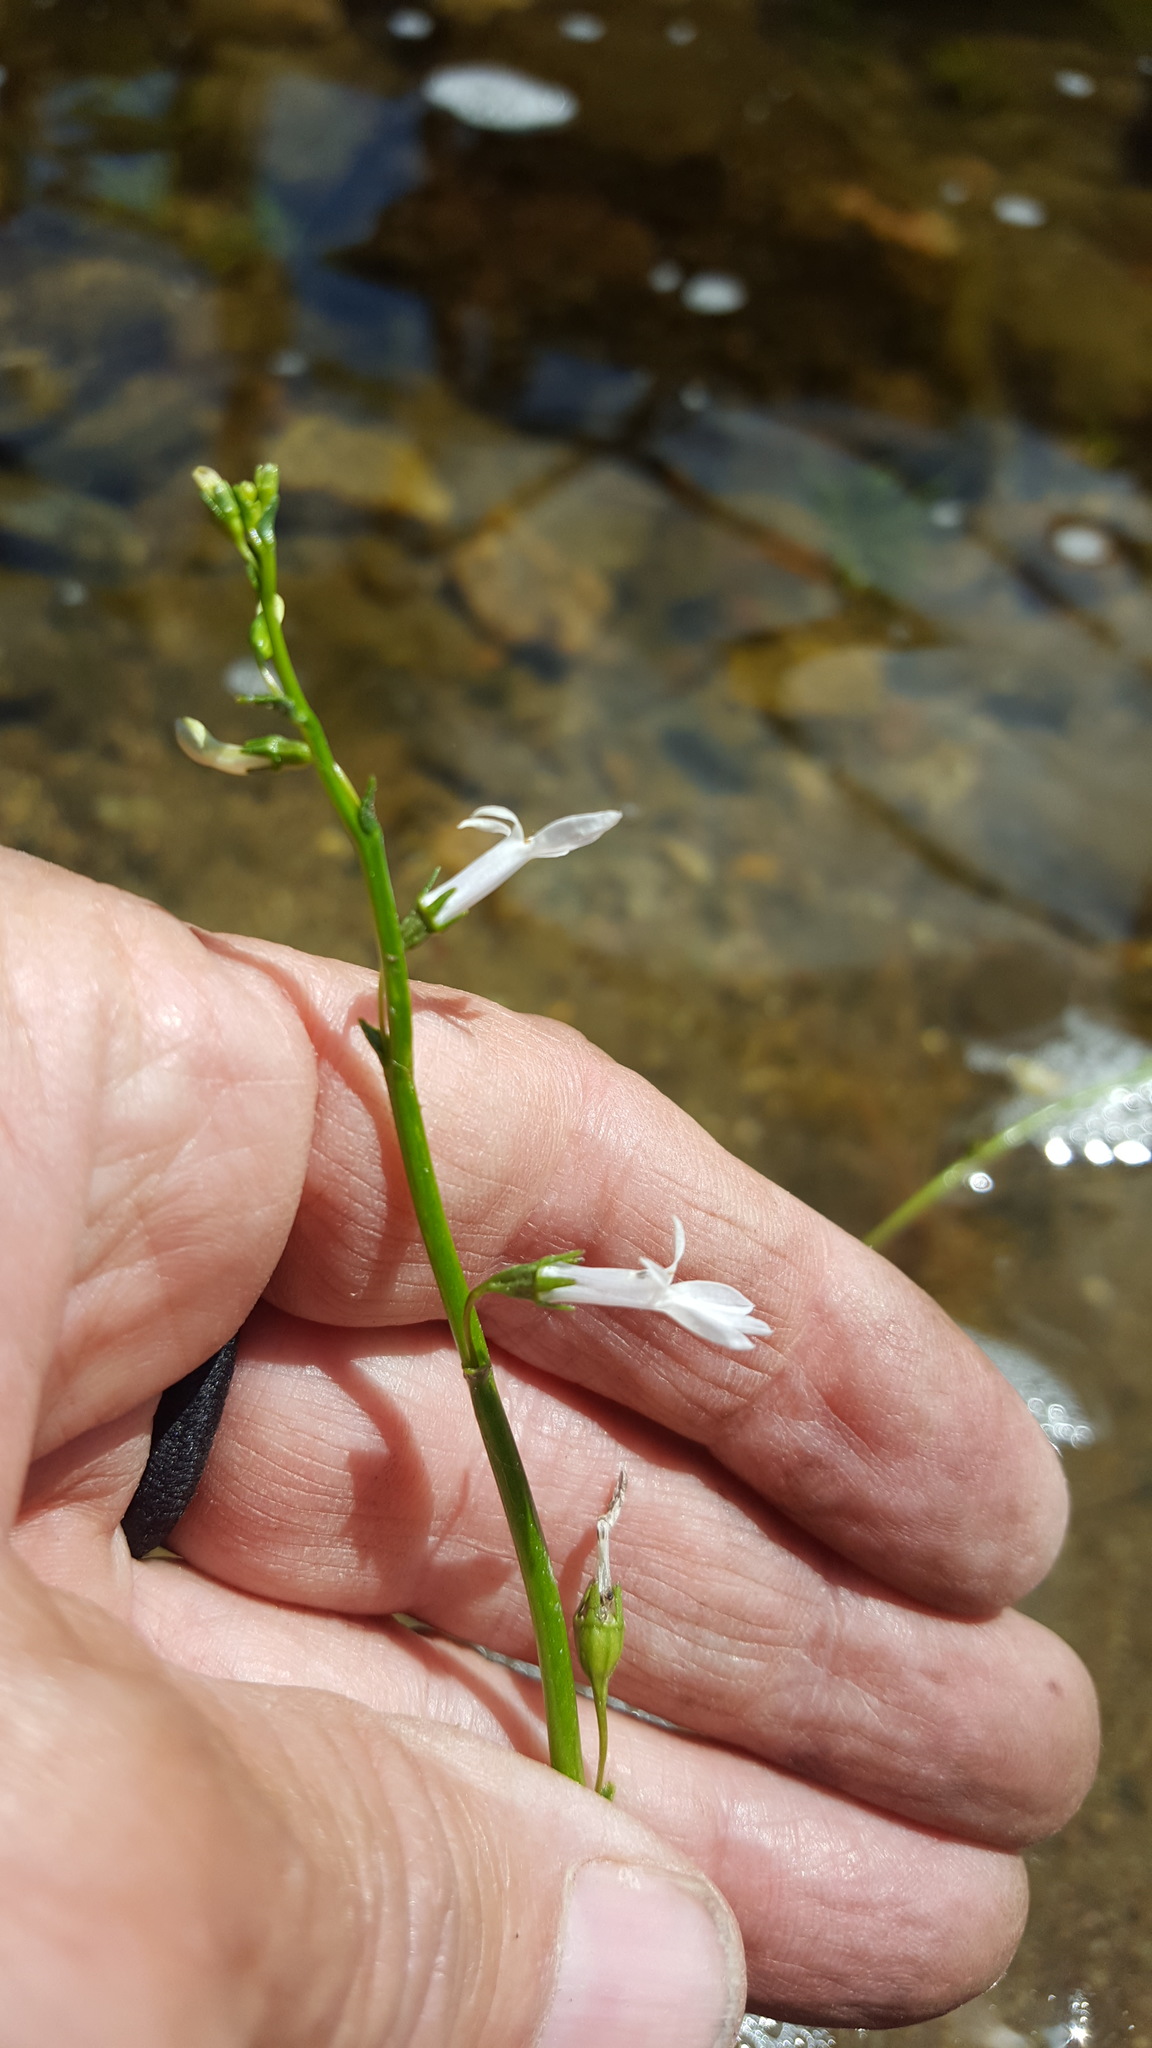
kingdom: Plantae
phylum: Tracheophyta
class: Magnoliopsida
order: Asterales
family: Campanulaceae
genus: Lobelia
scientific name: Lobelia dortmanna
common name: Water lobelia
